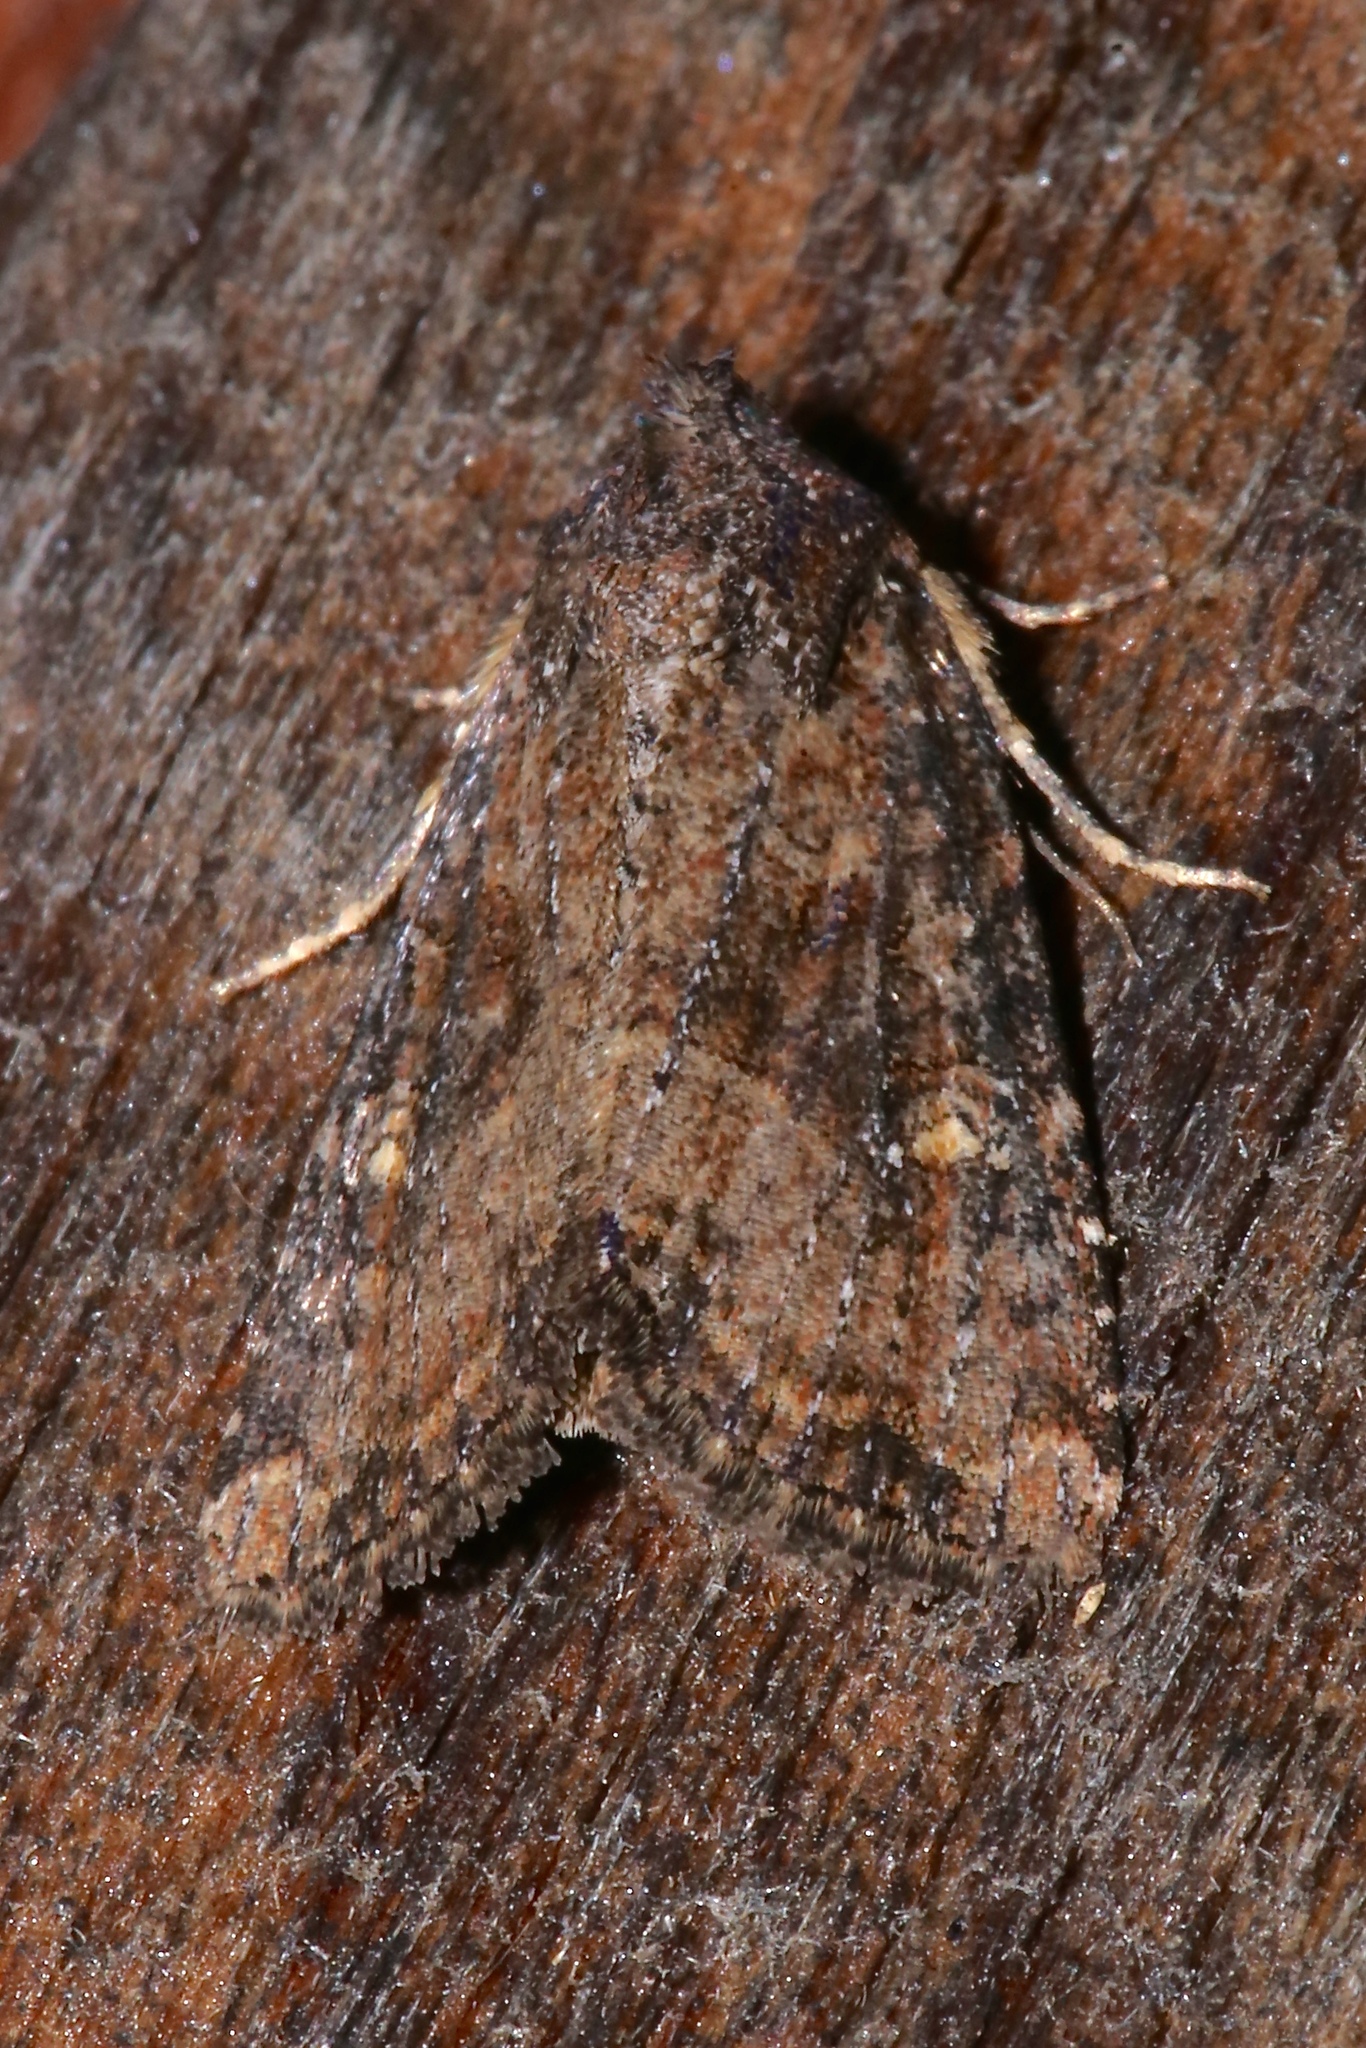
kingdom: Animalia
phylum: Arthropoda
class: Insecta
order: Lepidoptera
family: Noctuidae
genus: Mesapamea
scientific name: Mesapamea fractilinea
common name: Broken-lined brocade moth
